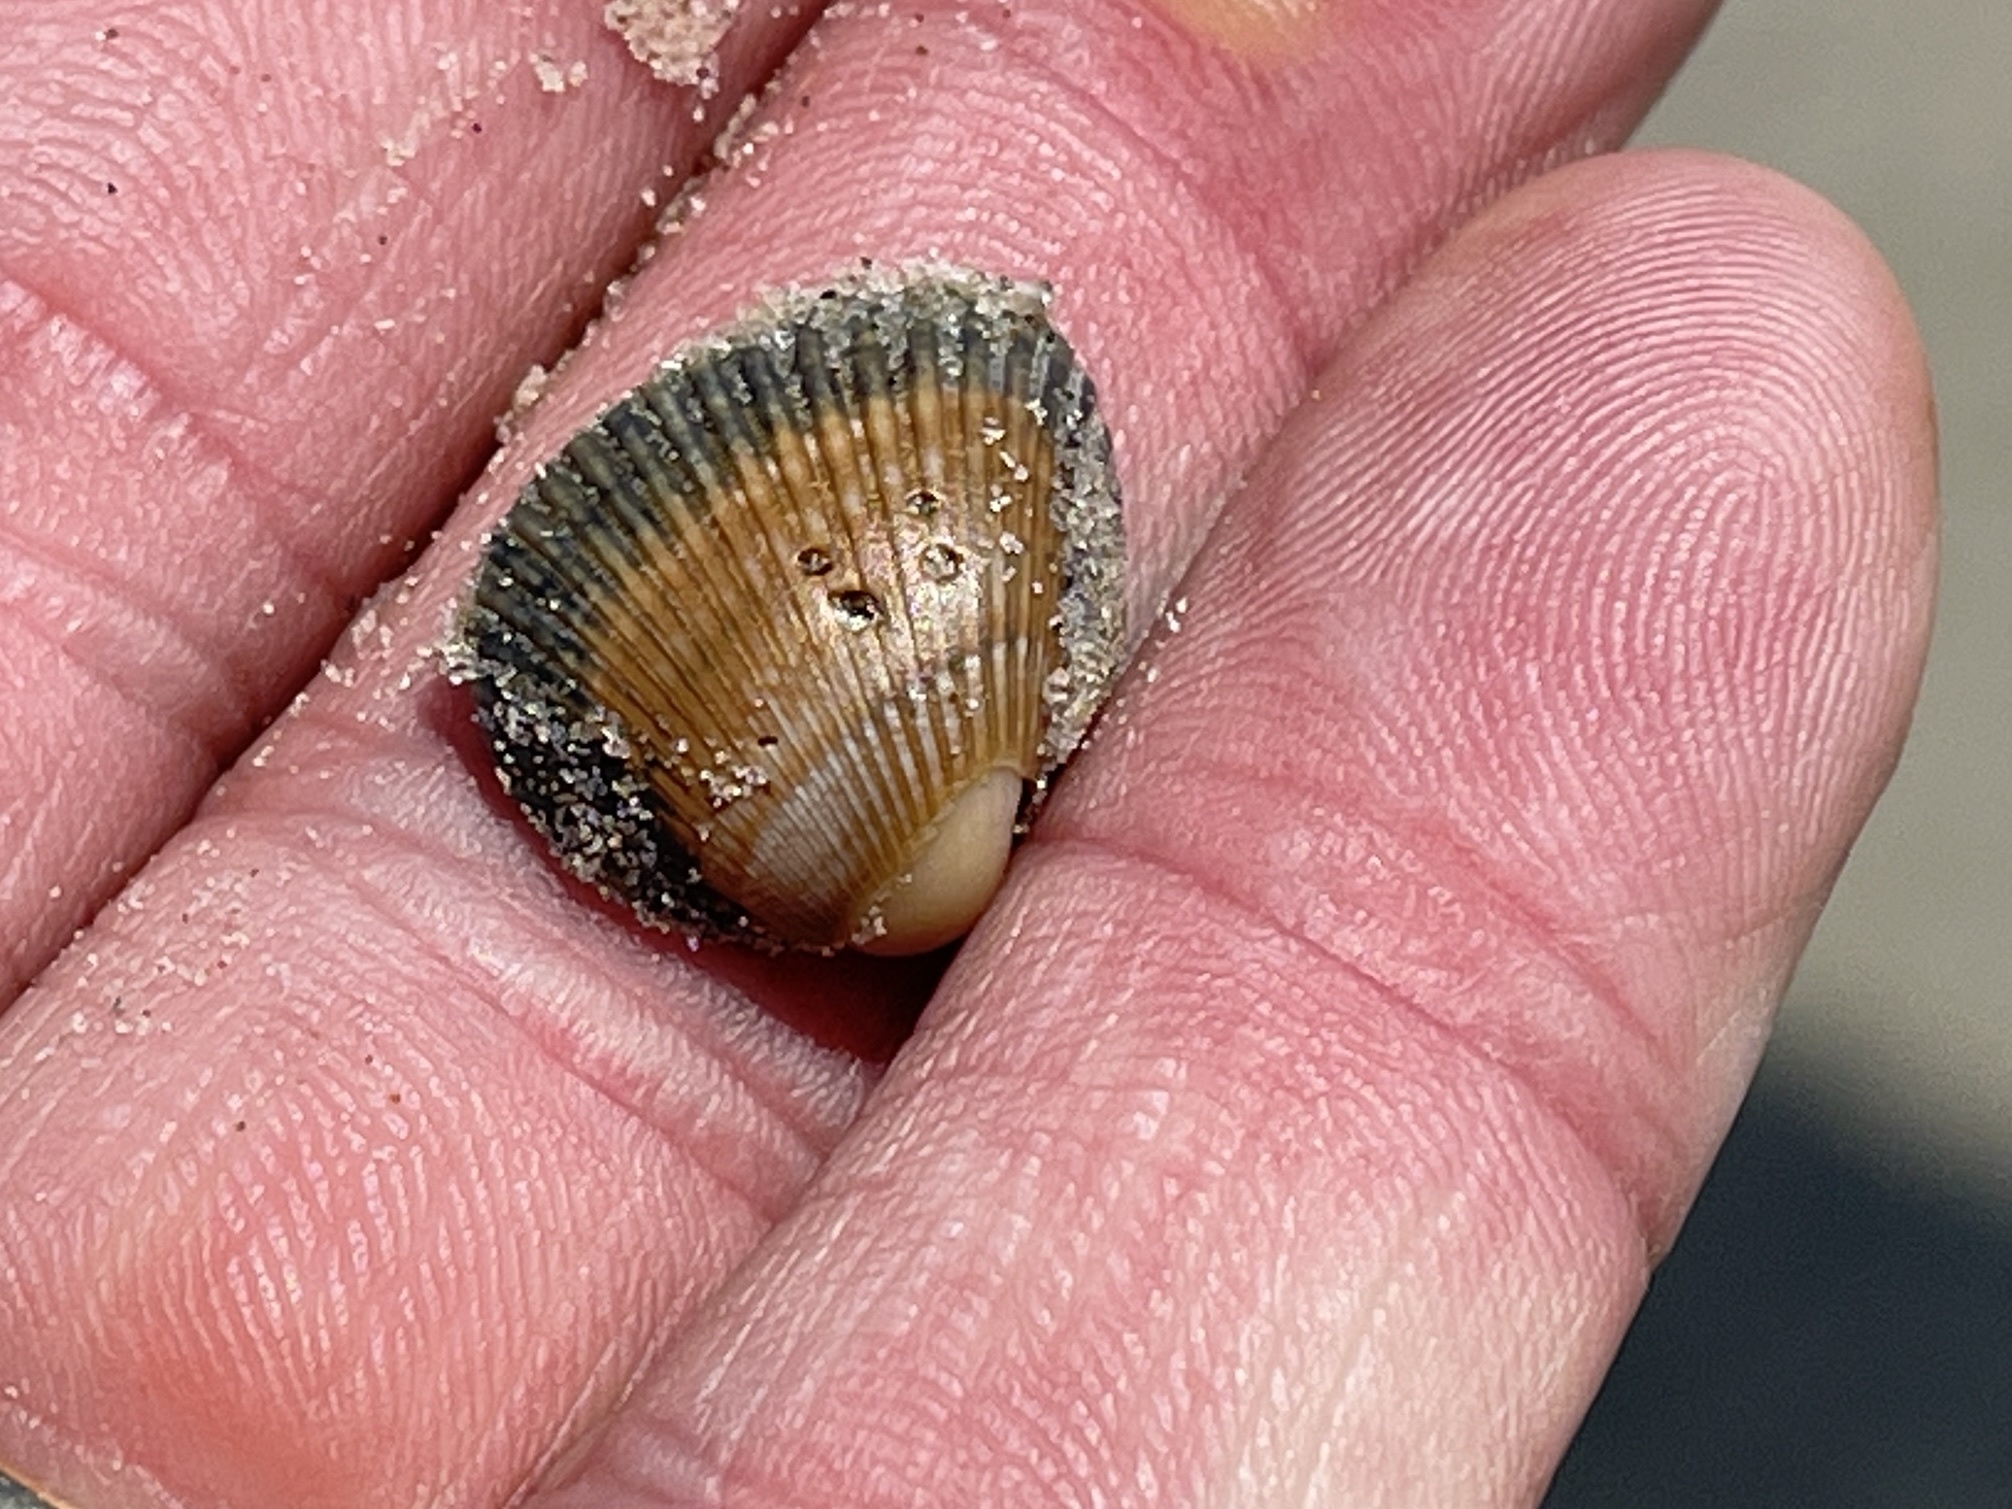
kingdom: Animalia
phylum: Mollusca
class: Bivalvia
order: Arcida
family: Noetiidae
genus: Noetia
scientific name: Noetia ponderosa
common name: Ponderous ark
